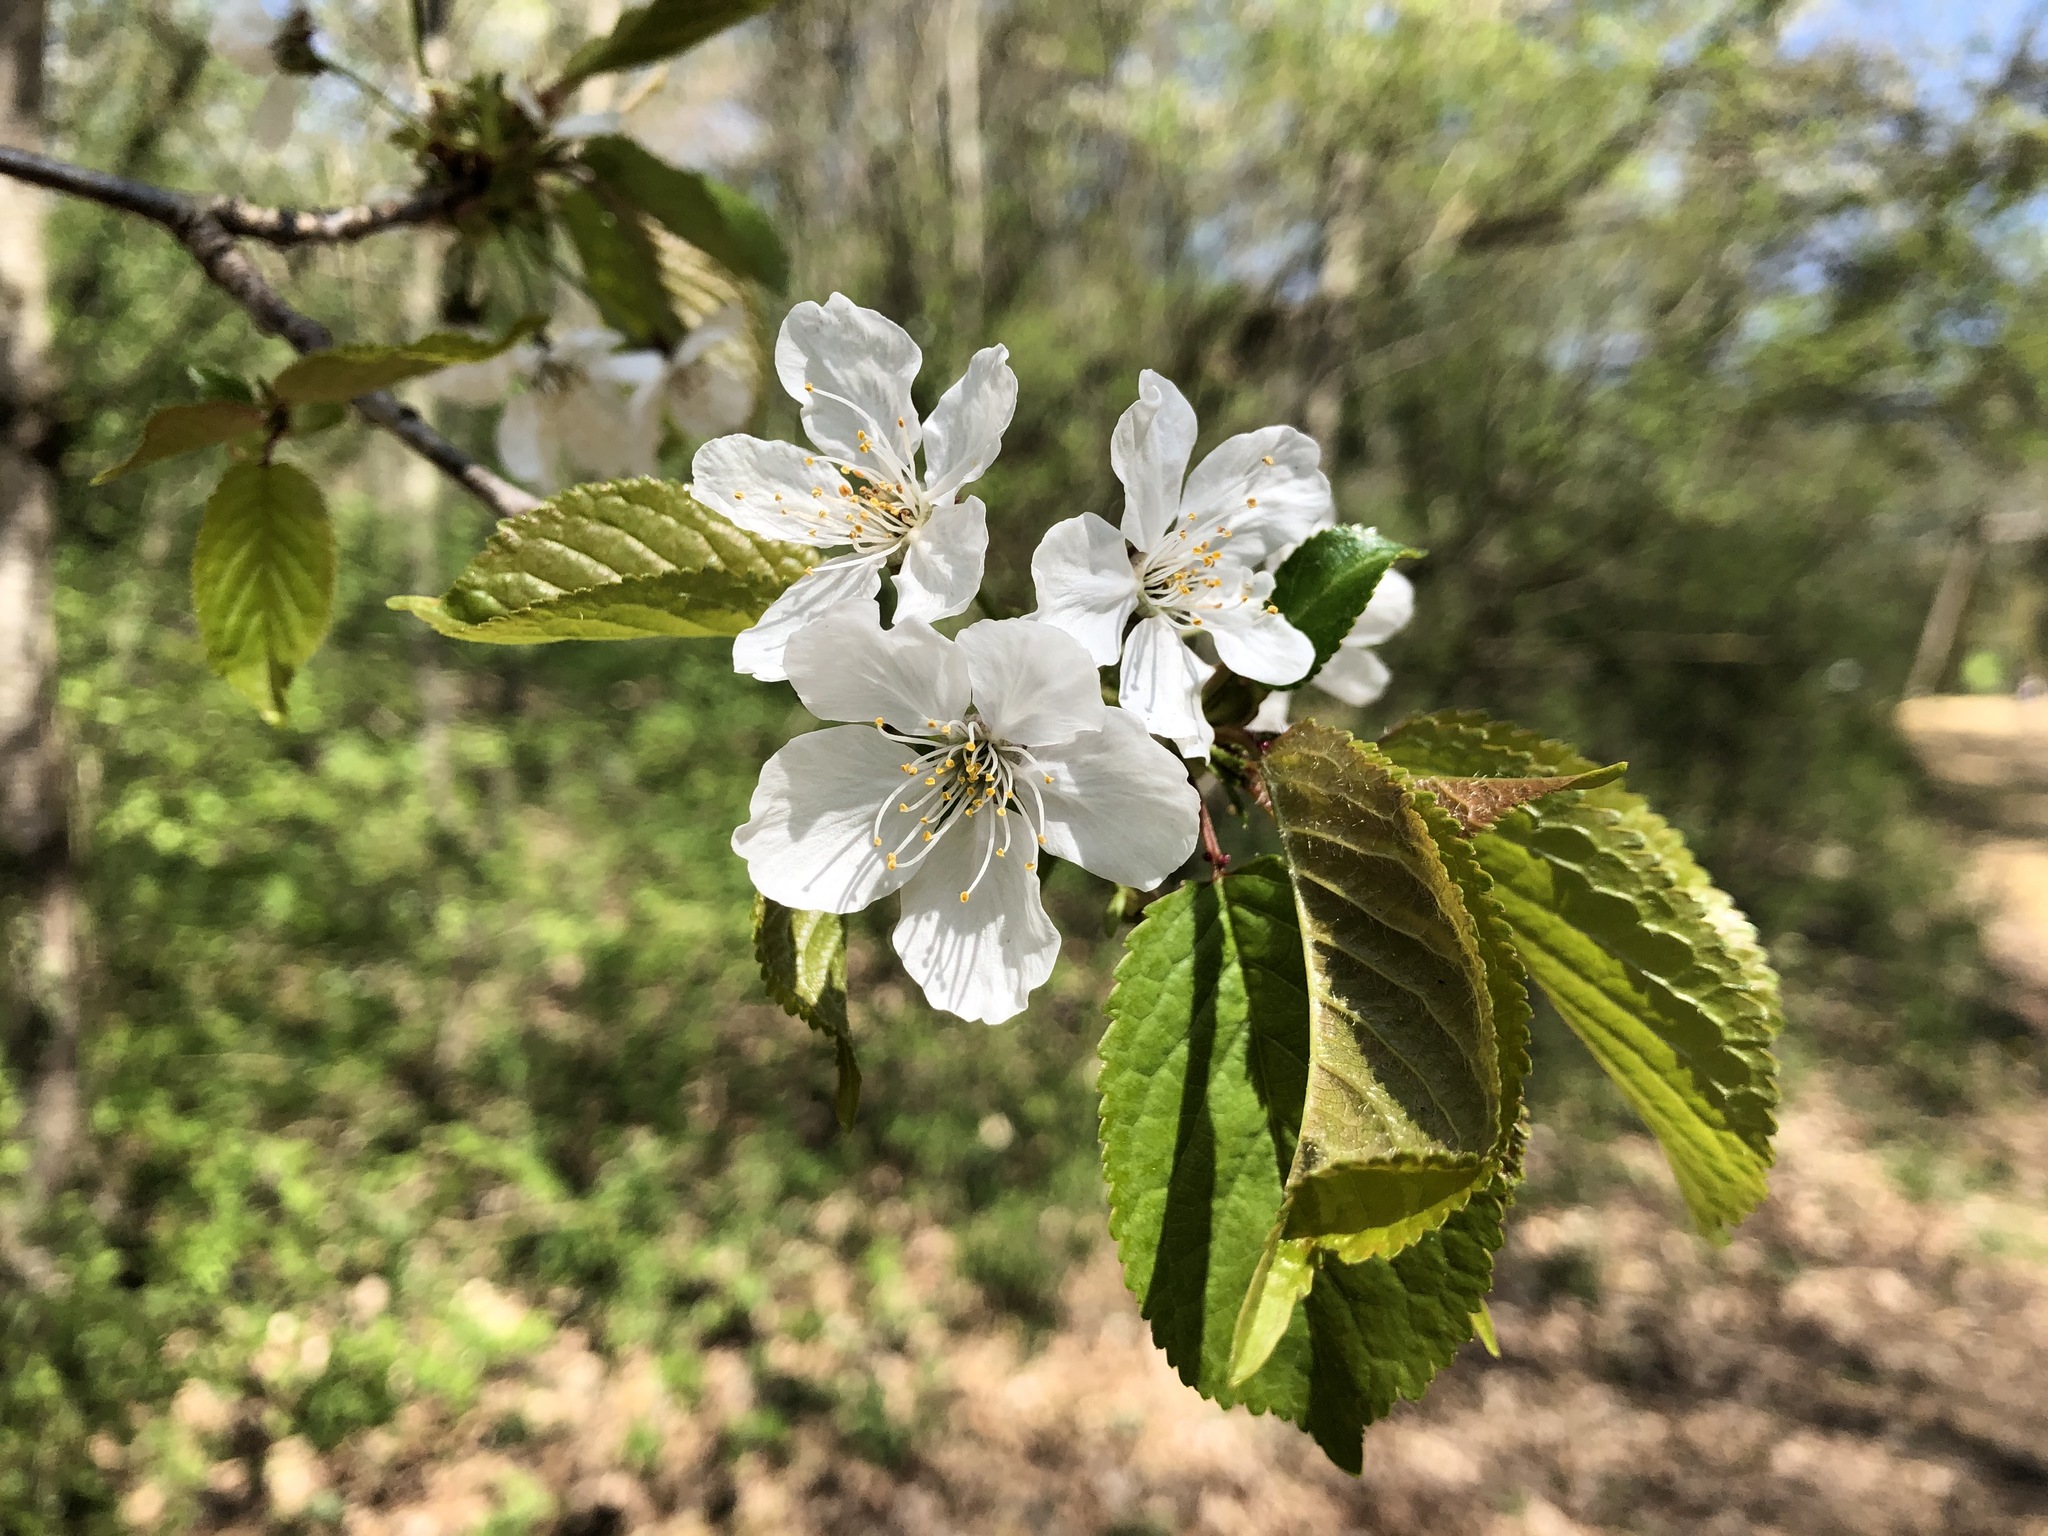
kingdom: Plantae
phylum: Tracheophyta
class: Magnoliopsida
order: Rosales
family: Rosaceae
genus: Prunus
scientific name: Prunus avium
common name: Sweet cherry
